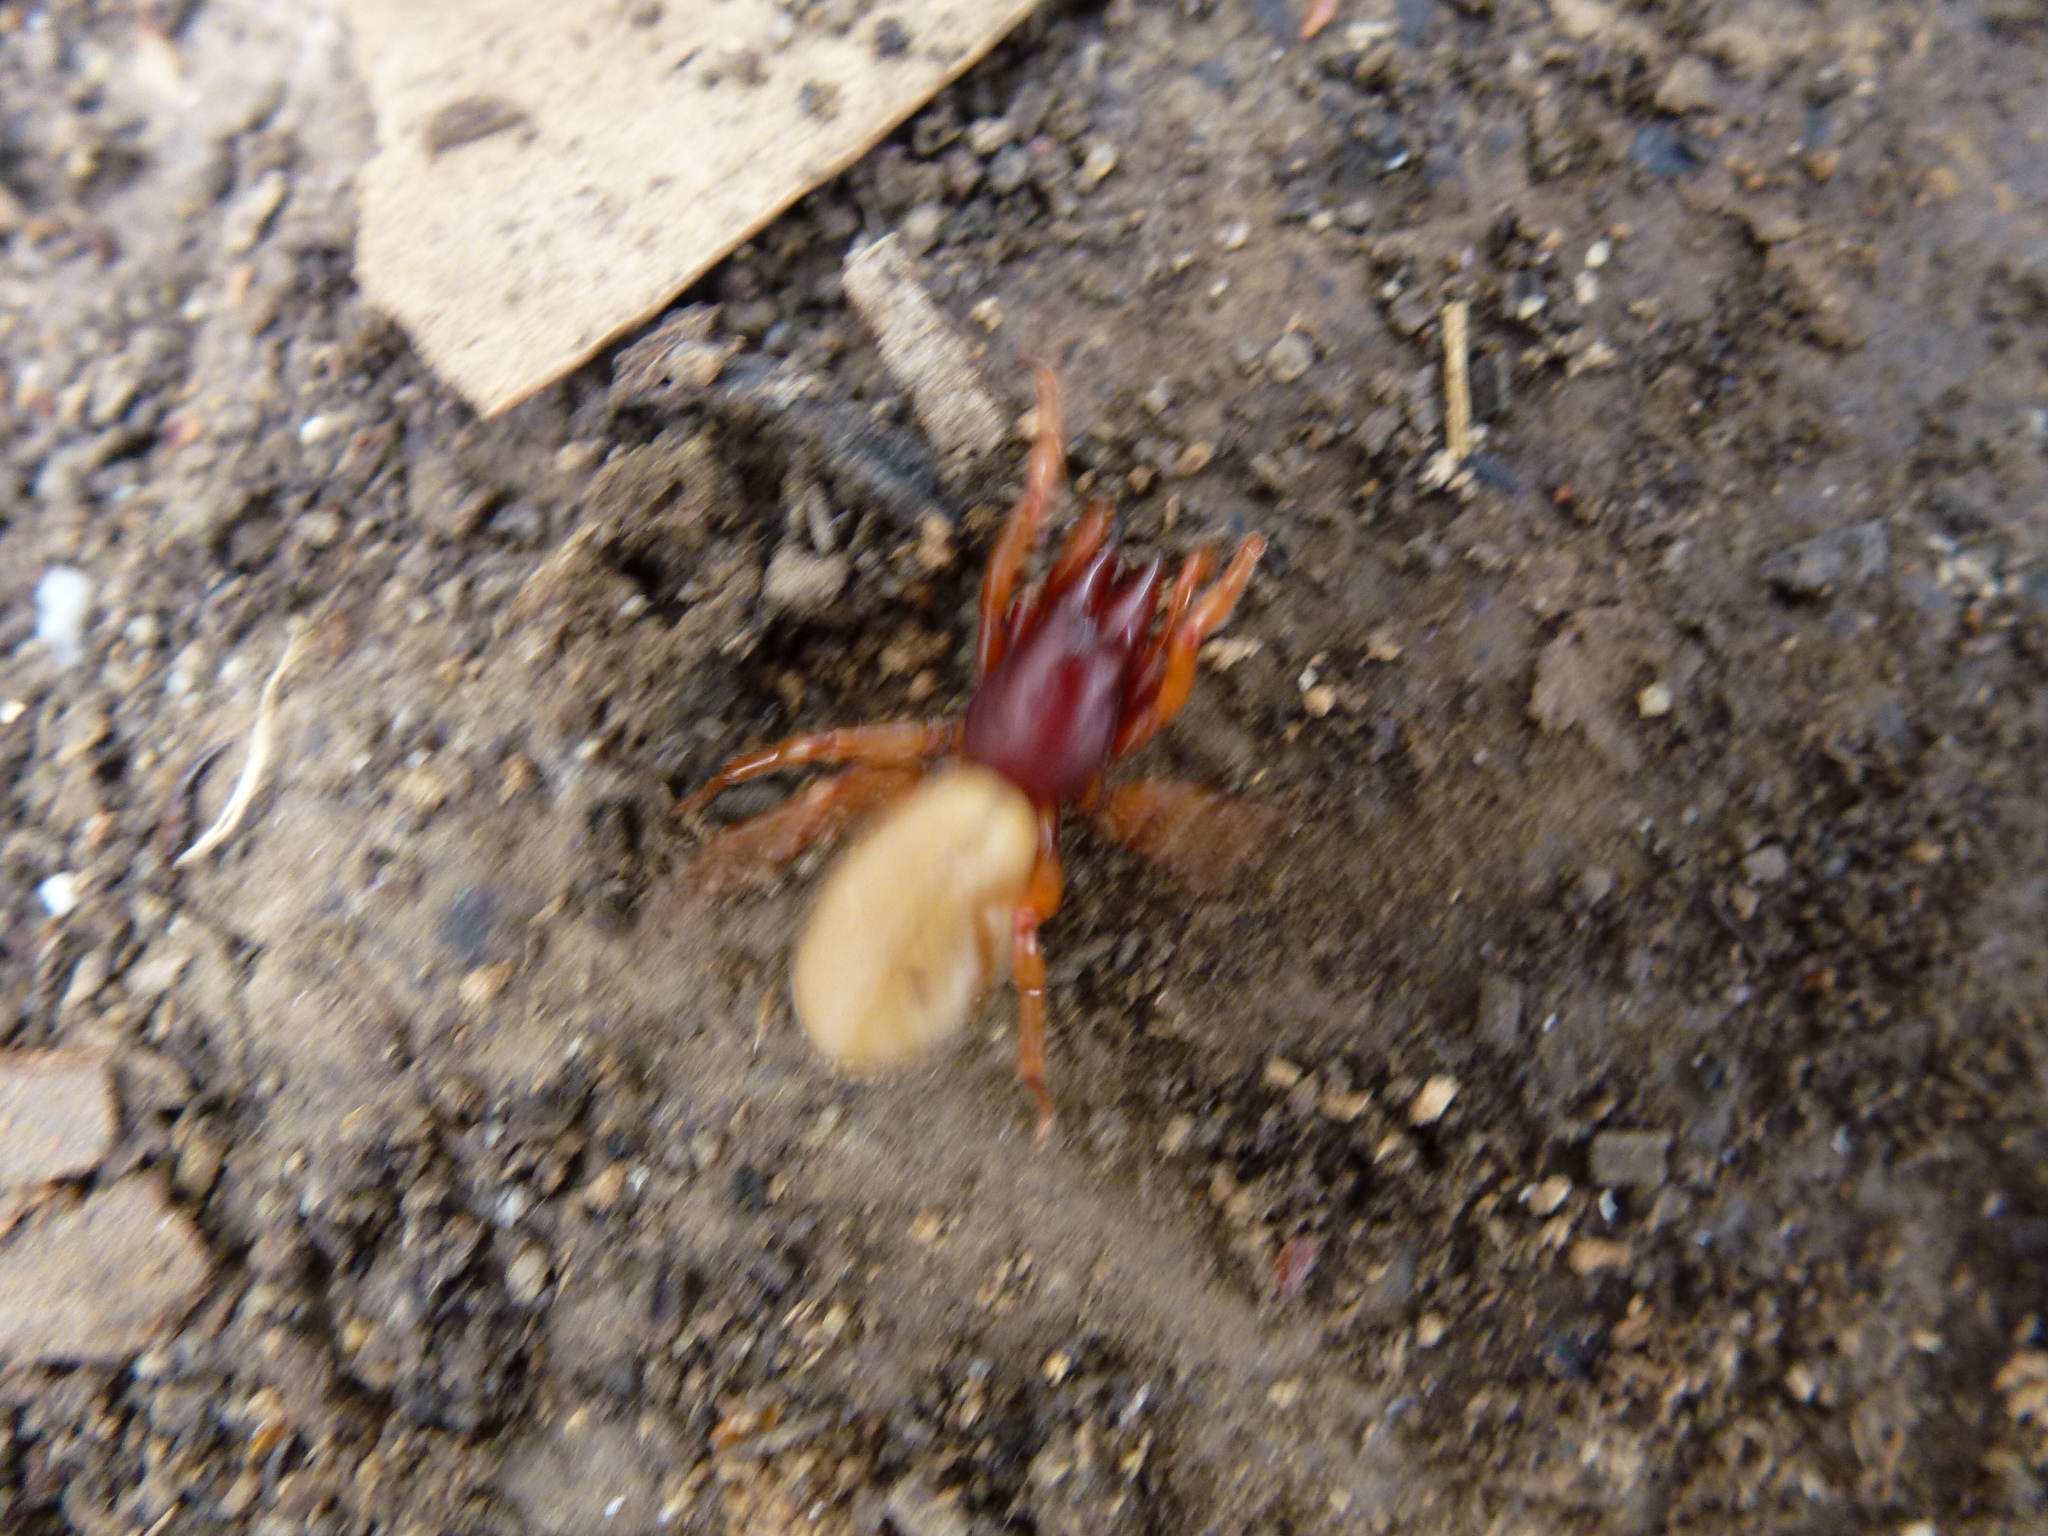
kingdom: Animalia
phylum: Arthropoda
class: Arachnida
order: Araneae
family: Dysderidae
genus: Dysdera
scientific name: Dysdera crocata
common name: Woodlouse spider
